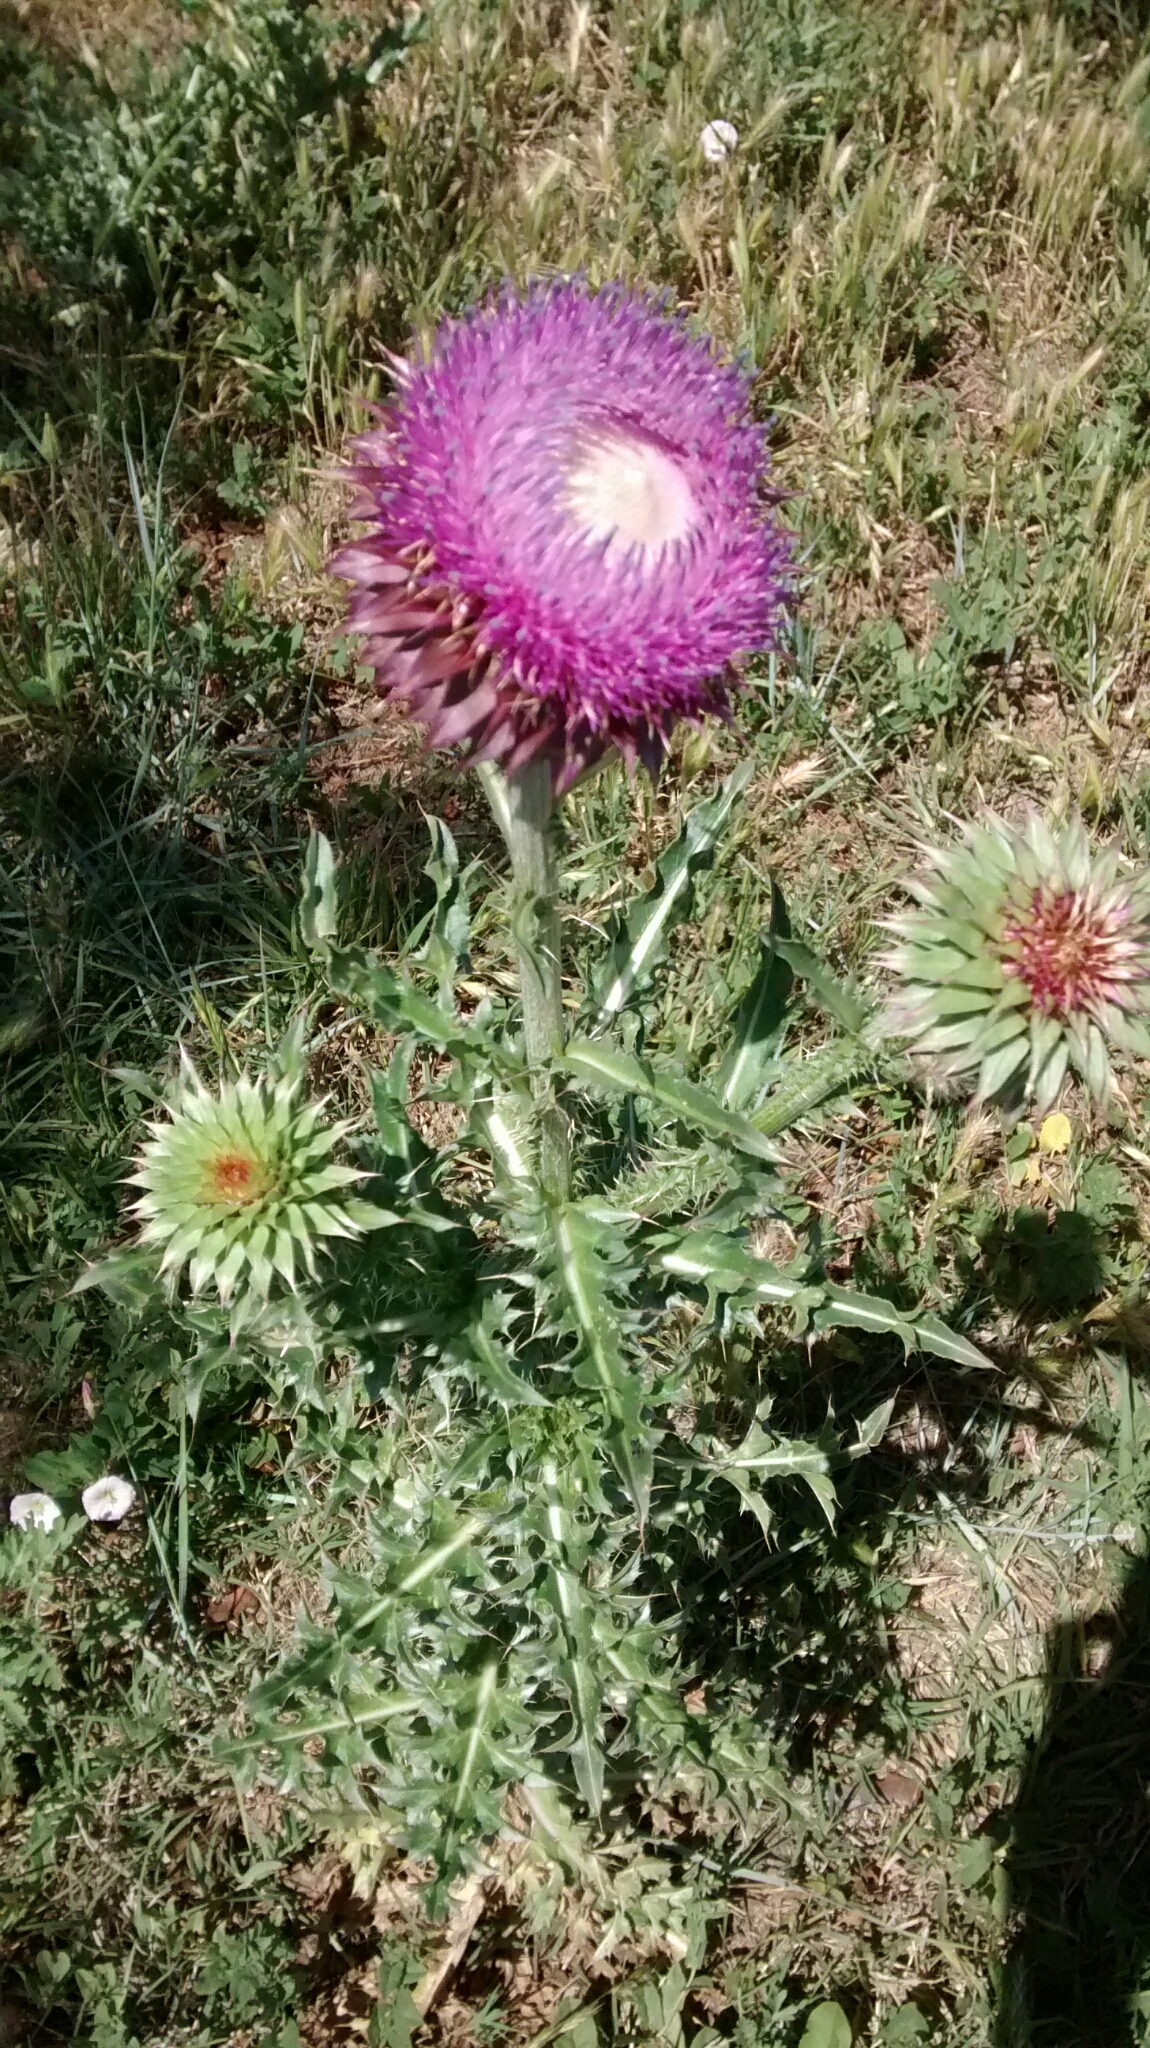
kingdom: Plantae
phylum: Tracheophyta
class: Magnoliopsida
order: Asterales
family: Asteraceae
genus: Carduus
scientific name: Carduus nutans
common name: Musk thistle
